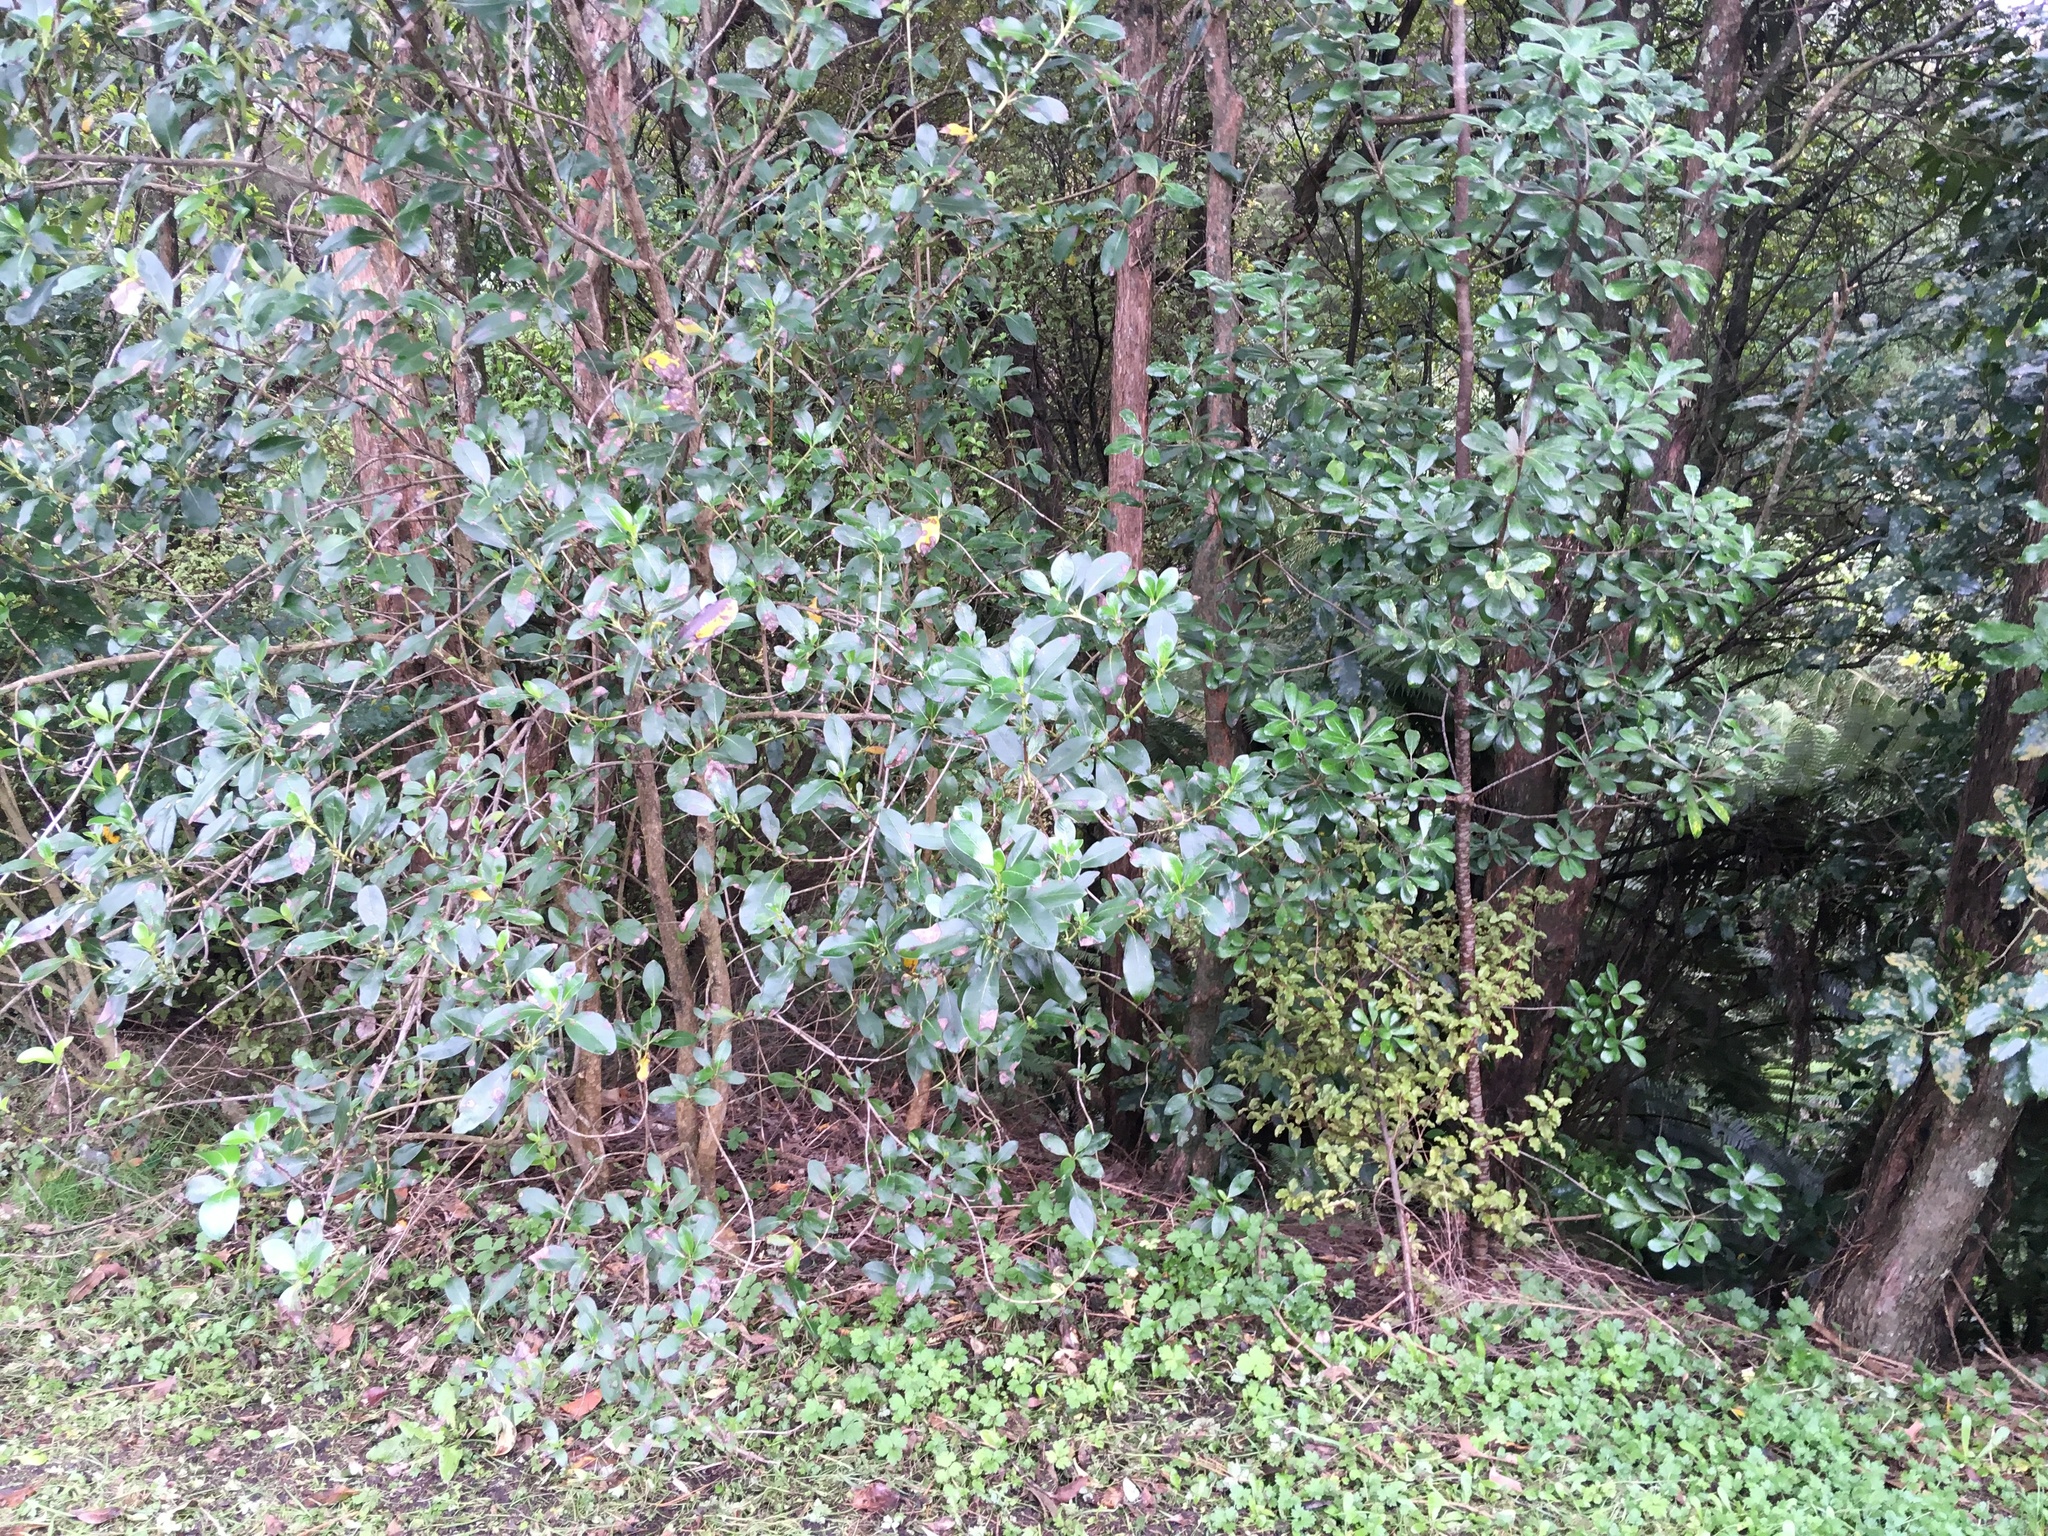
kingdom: Plantae
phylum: Tracheophyta
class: Magnoliopsida
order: Apiales
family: Pittosporaceae
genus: Pittosporum
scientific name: Pittosporum crassifolium
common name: Karo
